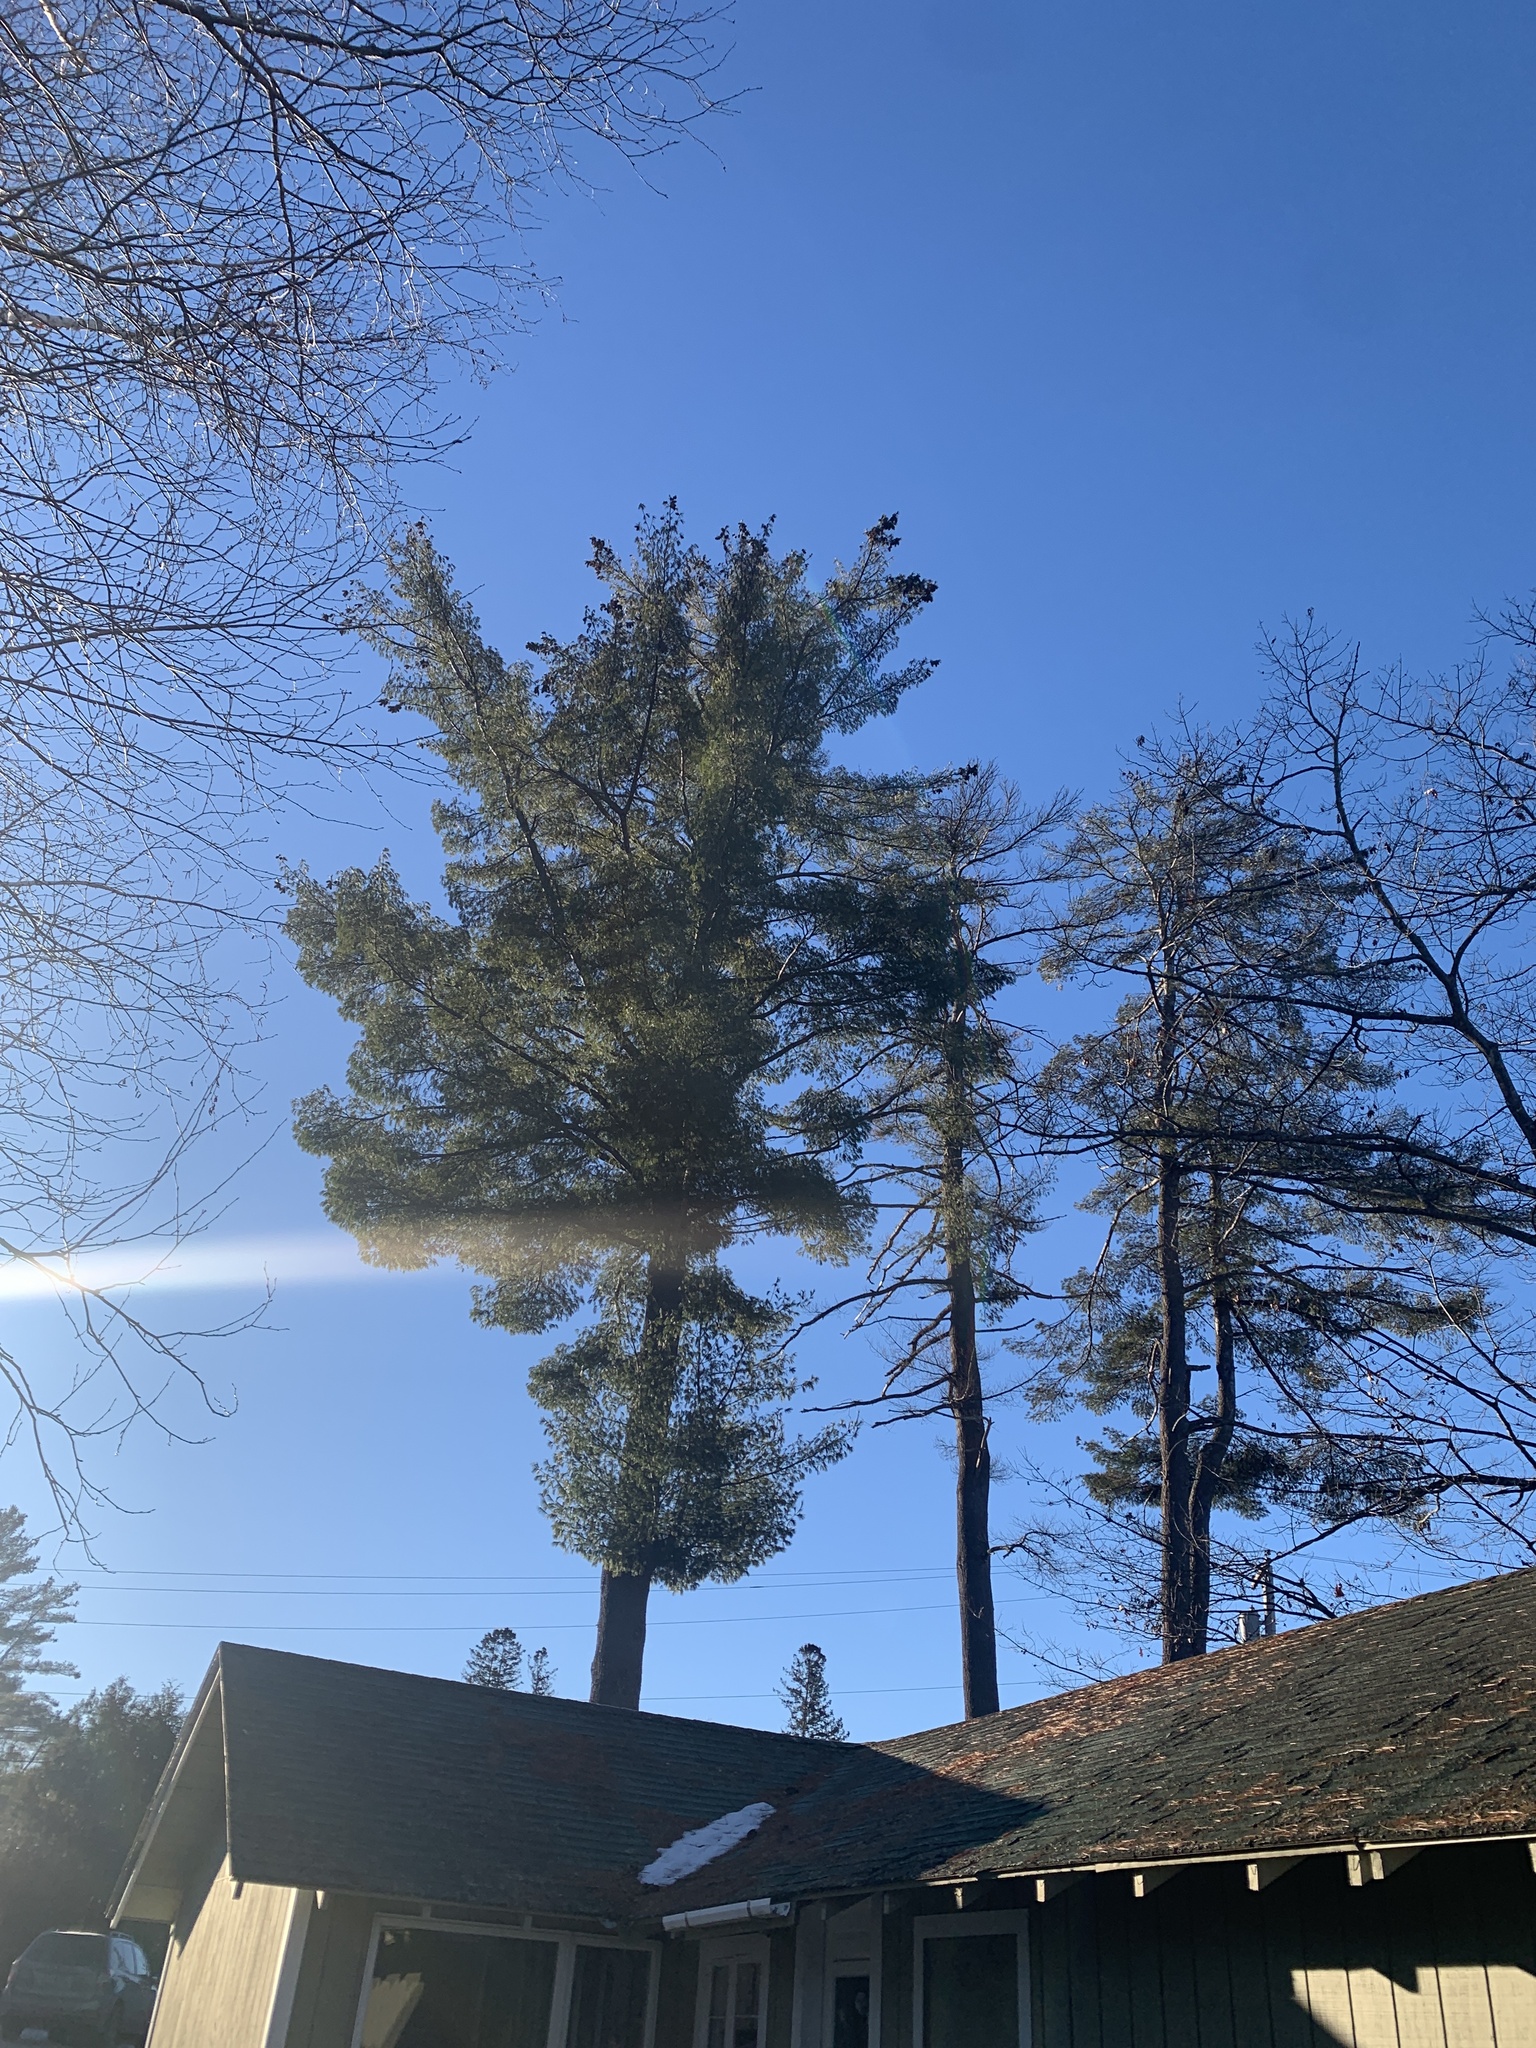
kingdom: Plantae
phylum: Tracheophyta
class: Pinopsida
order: Pinales
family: Pinaceae
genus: Pinus
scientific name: Pinus strobus
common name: Weymouth pine
